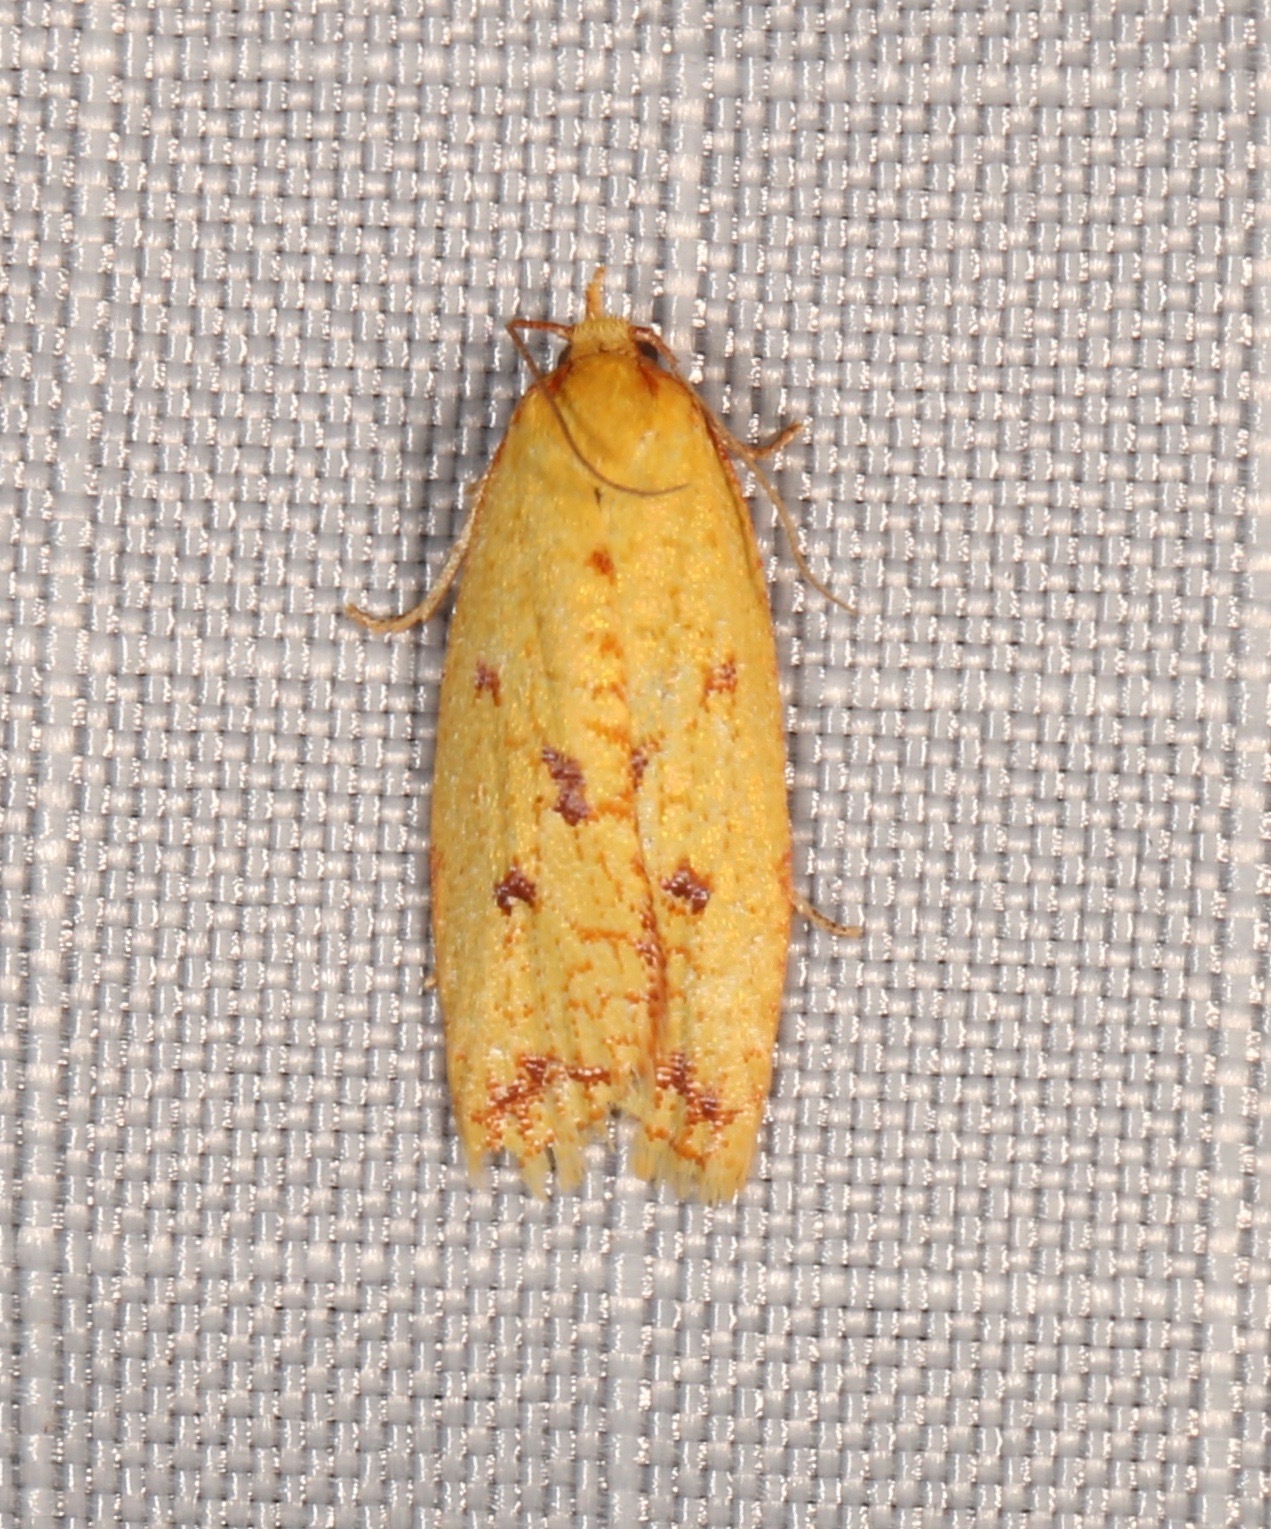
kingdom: Animalia
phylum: Arthropoda
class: Insecta
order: Lepidoptera
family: Tortricidae
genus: Sparganothis
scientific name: Sparganothis sulfureana
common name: Sparganothis fruitworm moth
